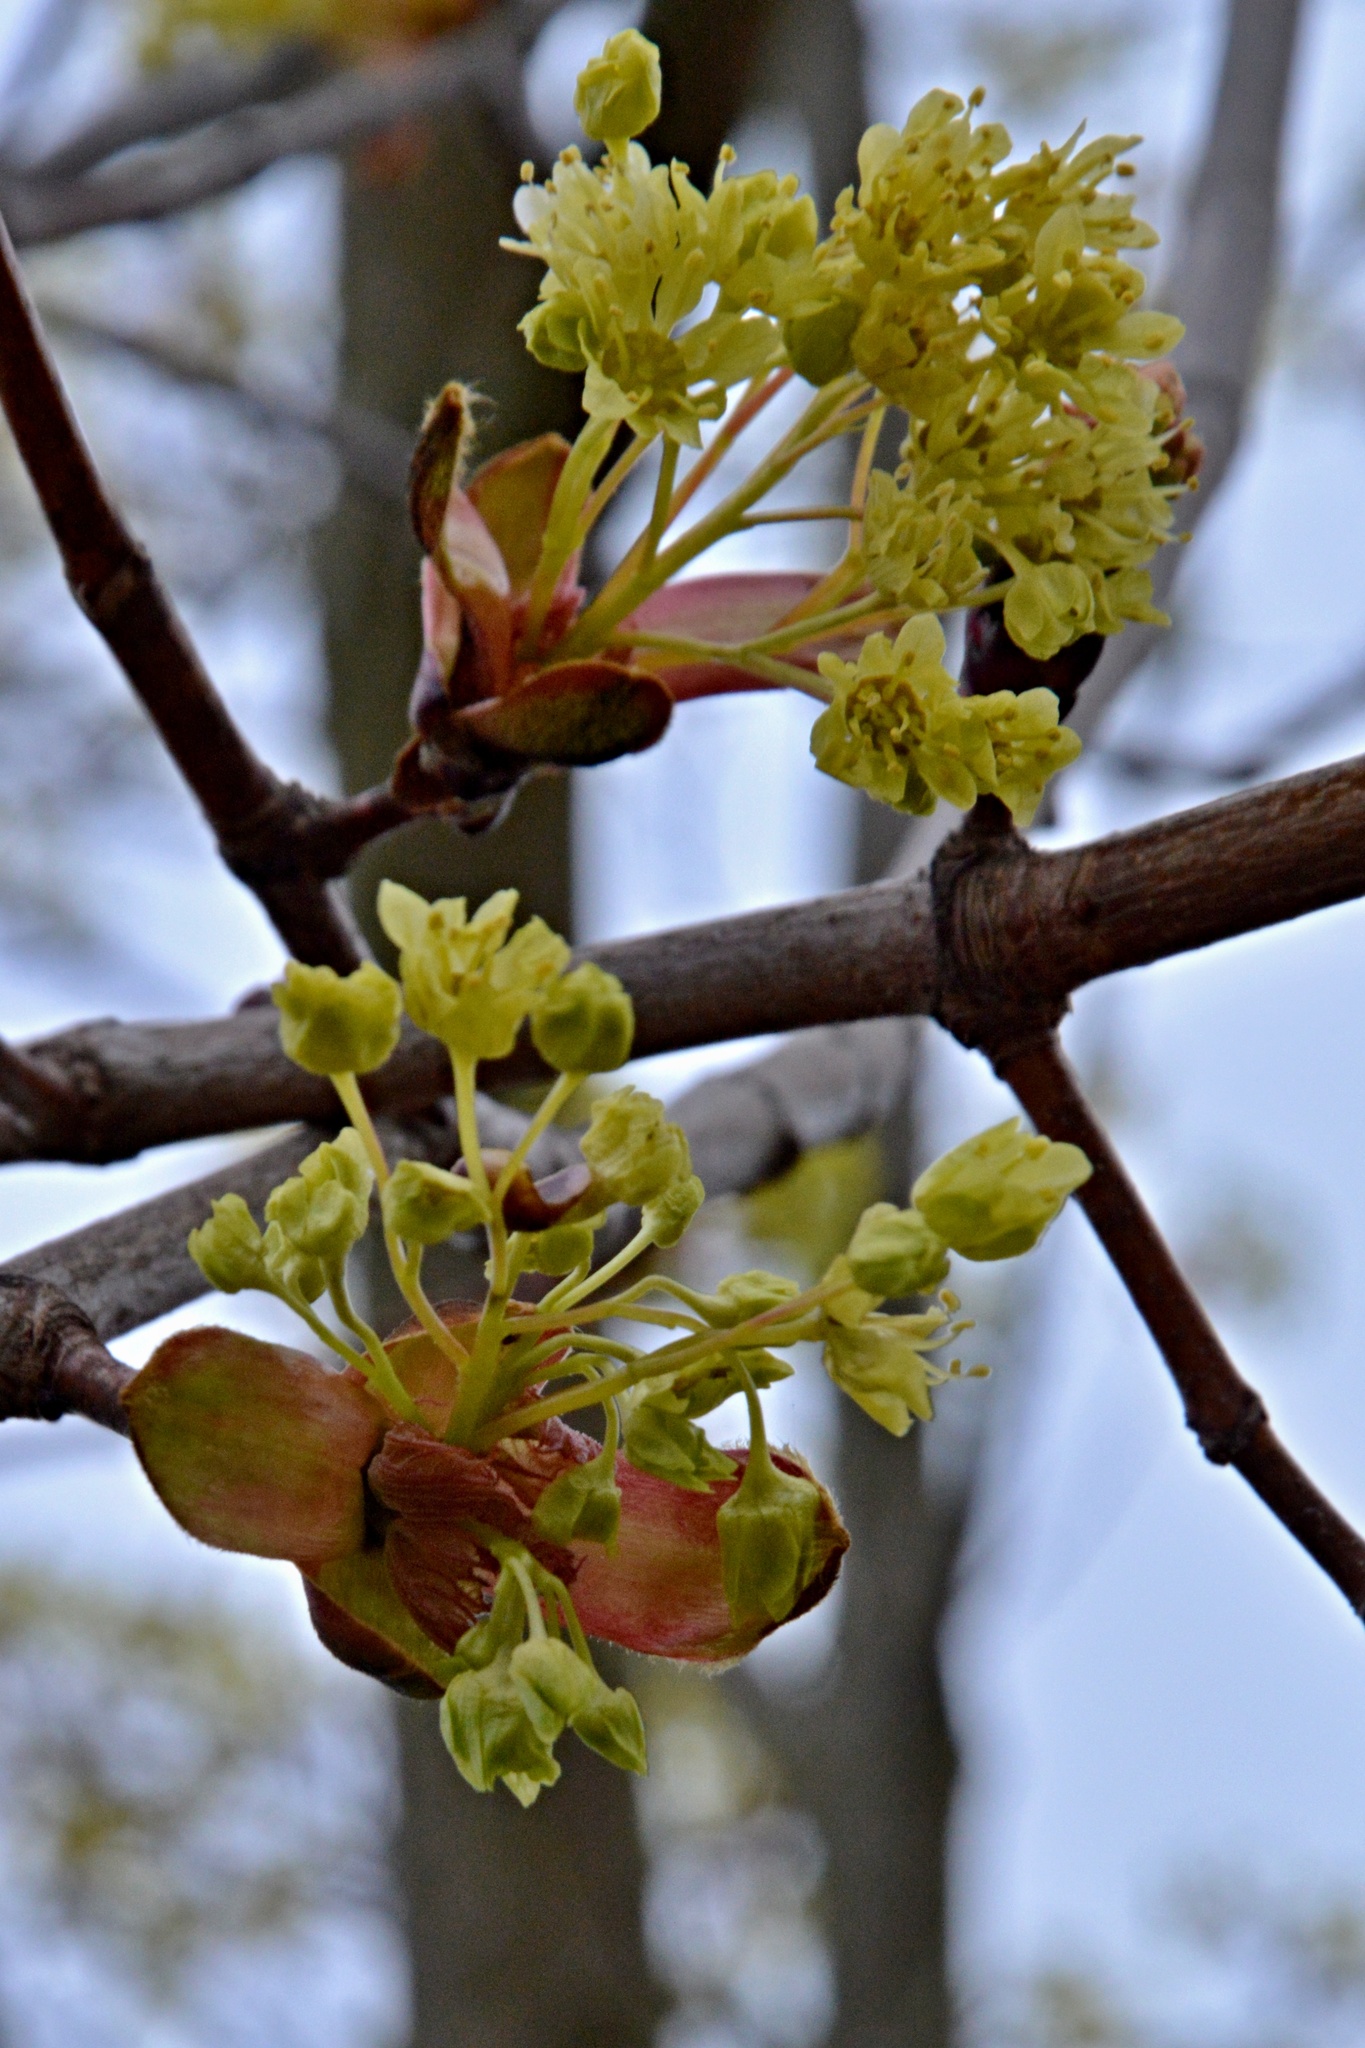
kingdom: Plantae
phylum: Tracheophyta
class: Magnoliopsida
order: Sapindales
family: Sapindaceae
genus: Acer
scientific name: Acer platanoides
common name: Norway maple
